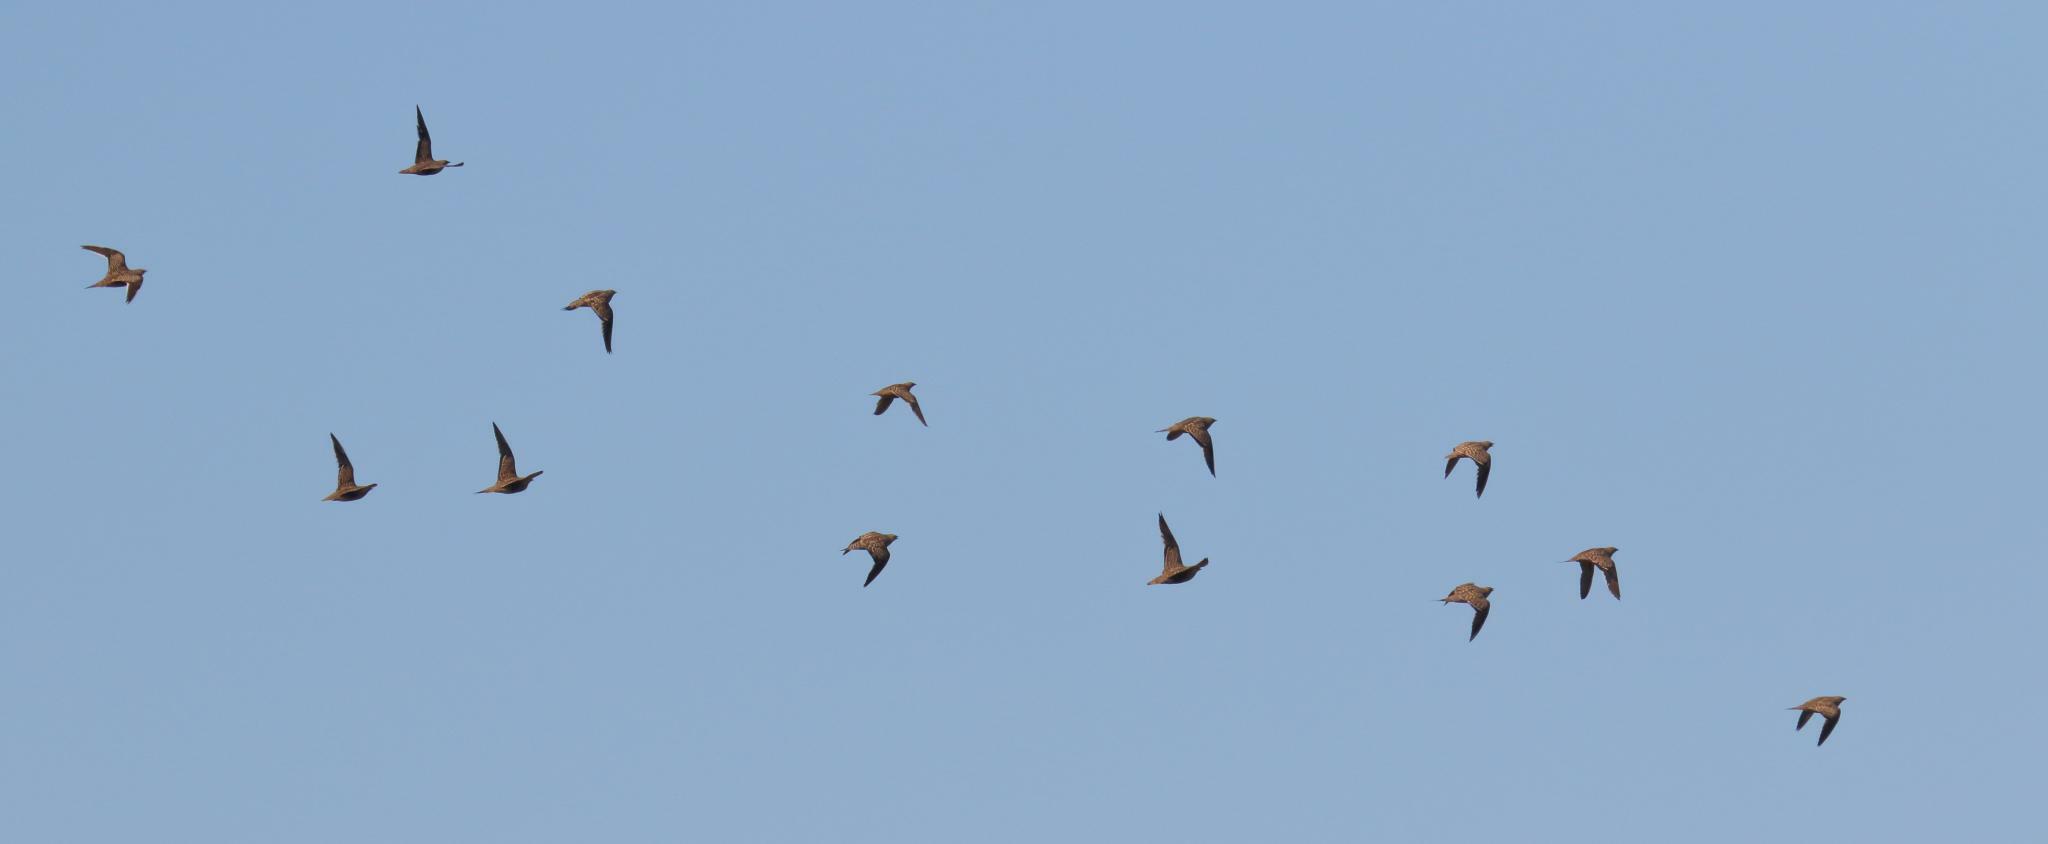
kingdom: Animalia
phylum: Chordata
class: Aves
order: Pteroclidiformes
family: Pteroclididae
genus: Pterocles
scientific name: Pterocles namaqua
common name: Namaqua sandgrouse
